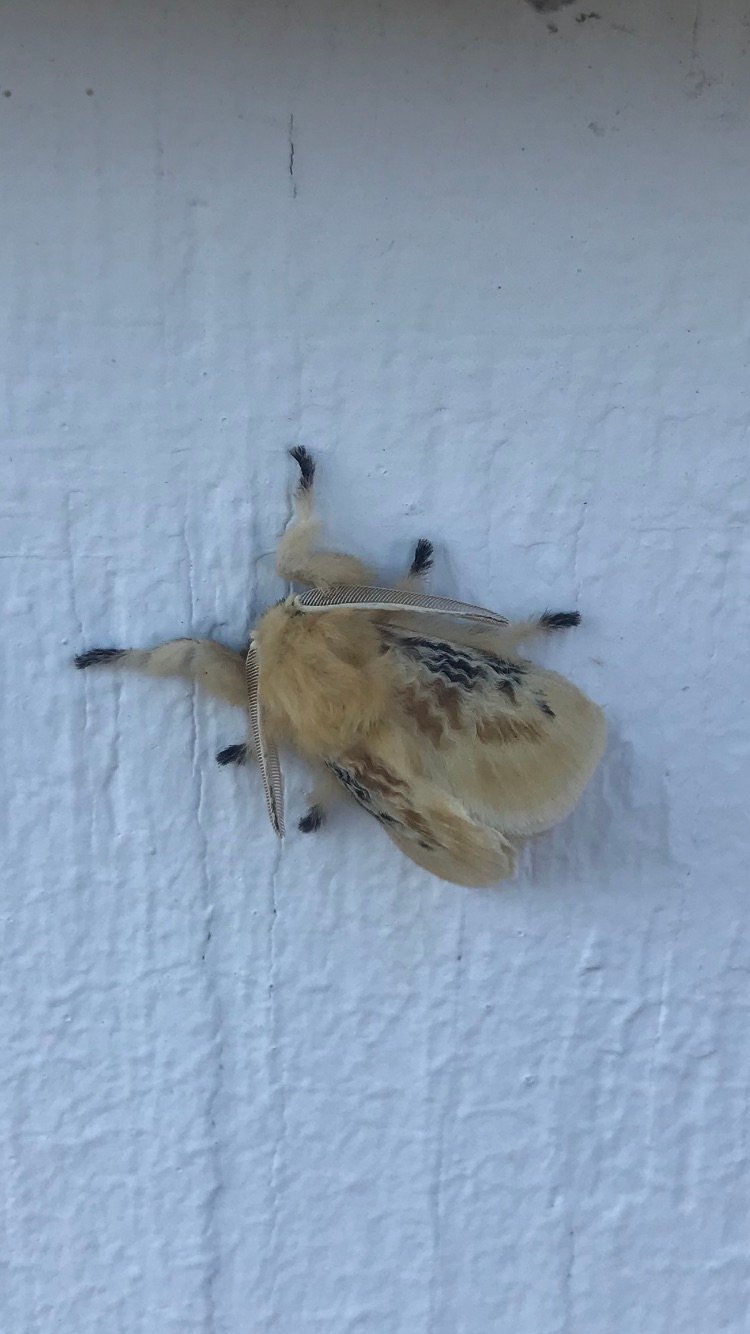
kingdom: Animalia
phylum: Arthropoda
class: Insecta
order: Lepidoptera
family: Megalopygidae
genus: Megalopyge
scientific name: Megalopyge crispata
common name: Black-waved flannel moth
